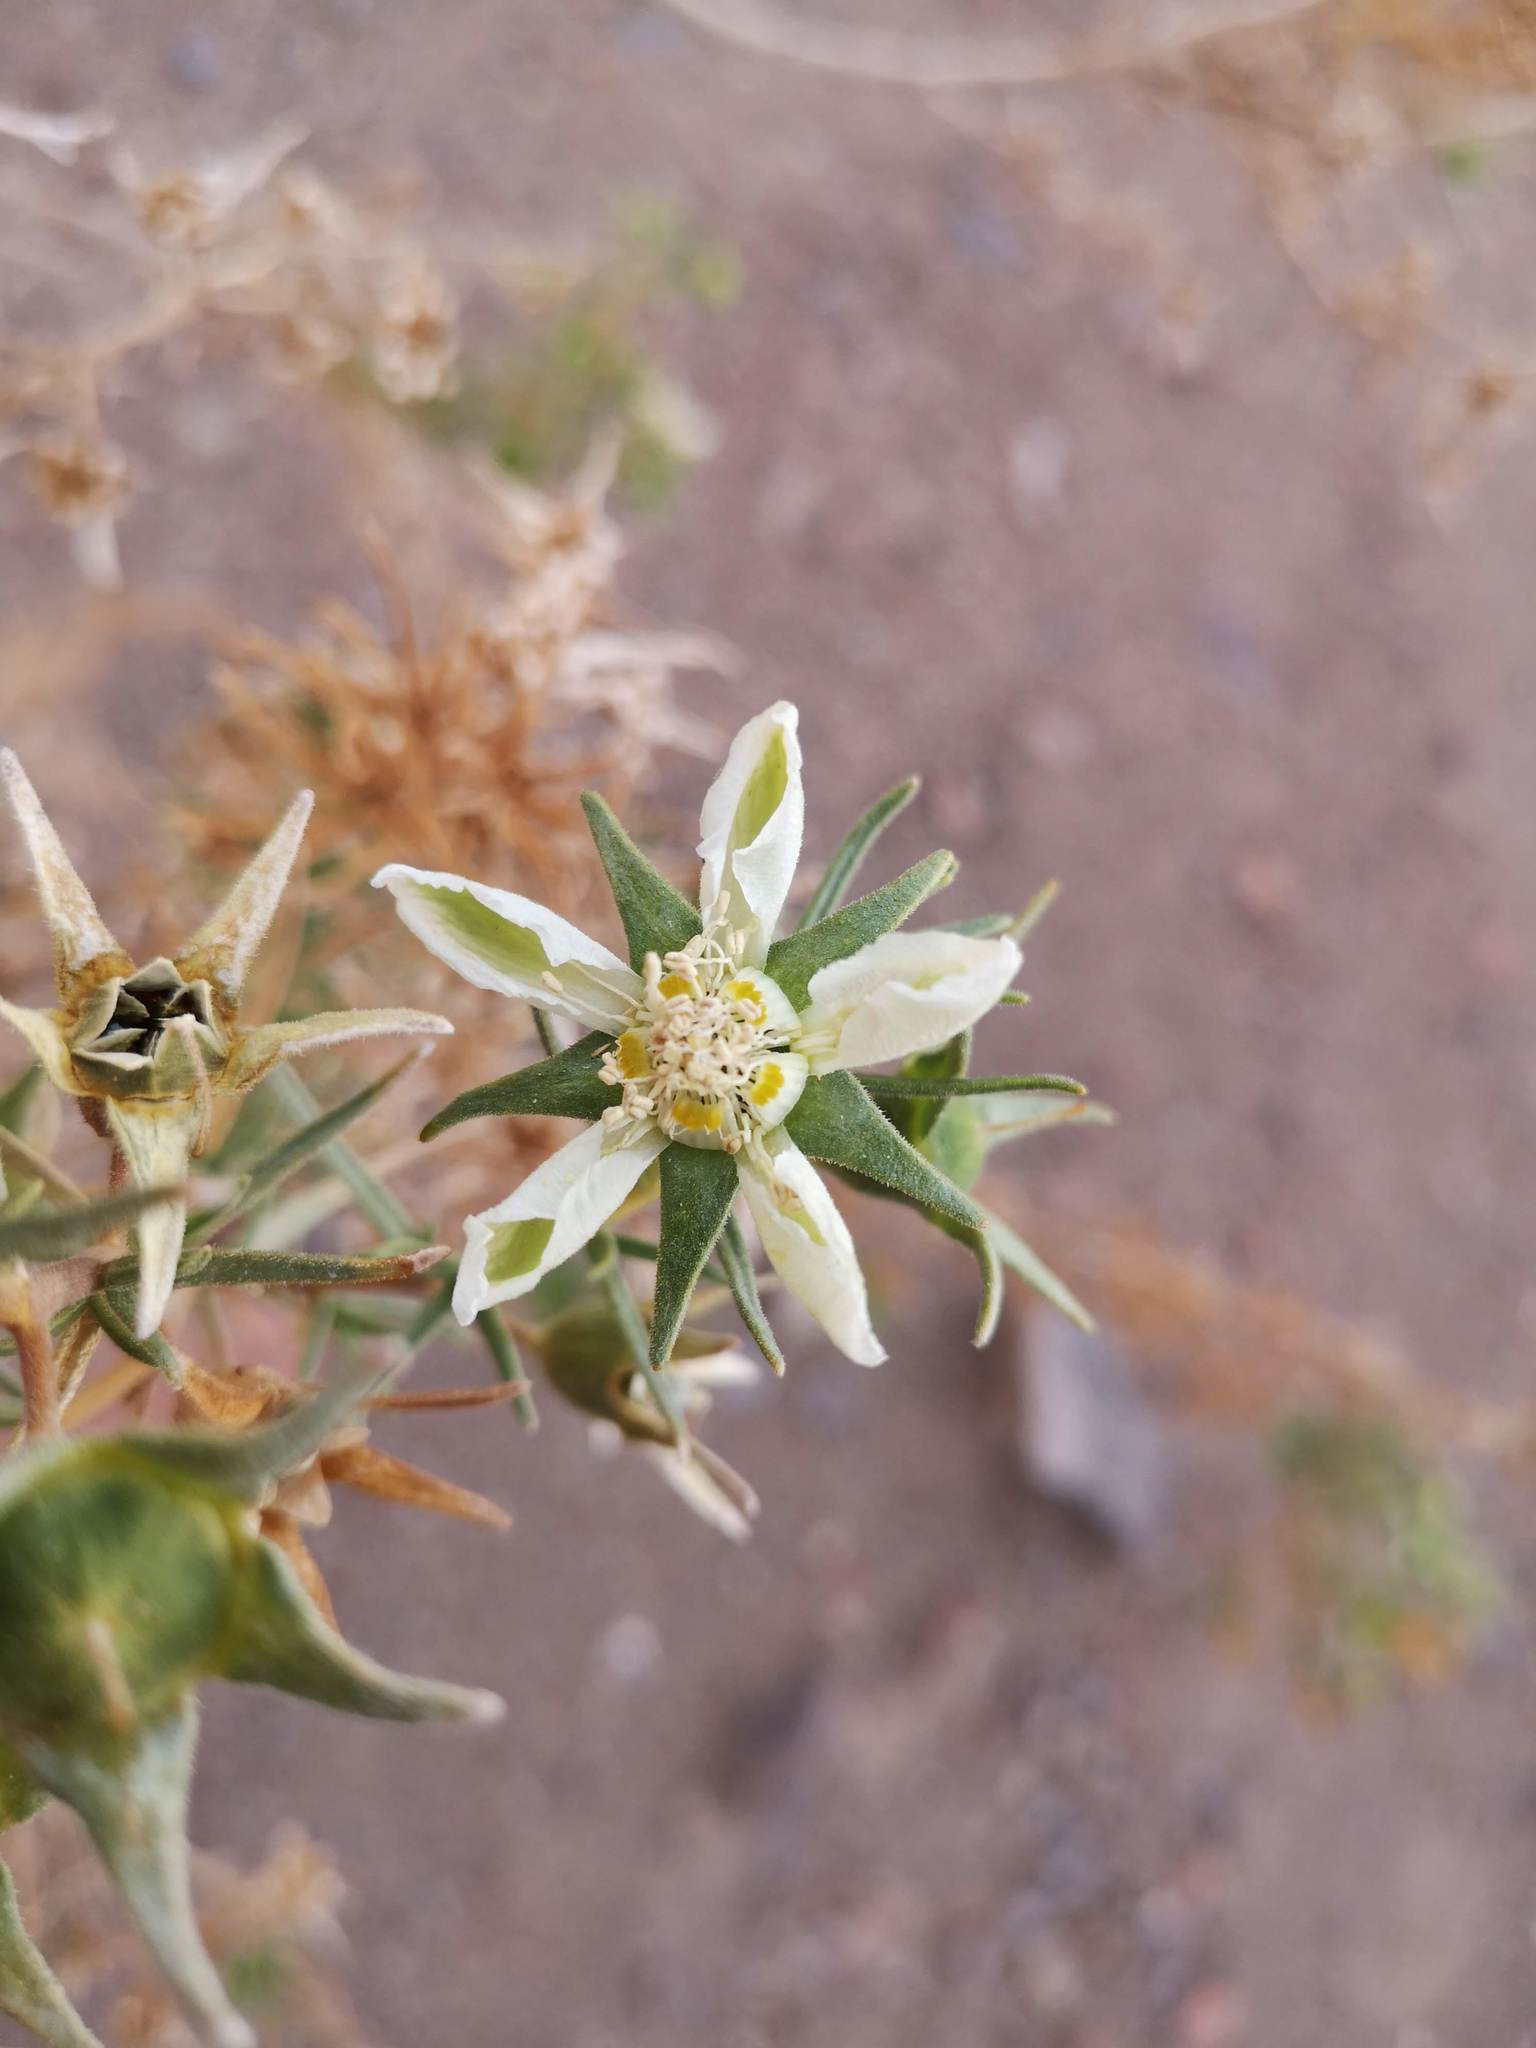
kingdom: Plantae
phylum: Tracheophyta
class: Magnoliopsida
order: Cornales
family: Loasaceae
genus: Huidobria
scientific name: Huidobria chilensis
